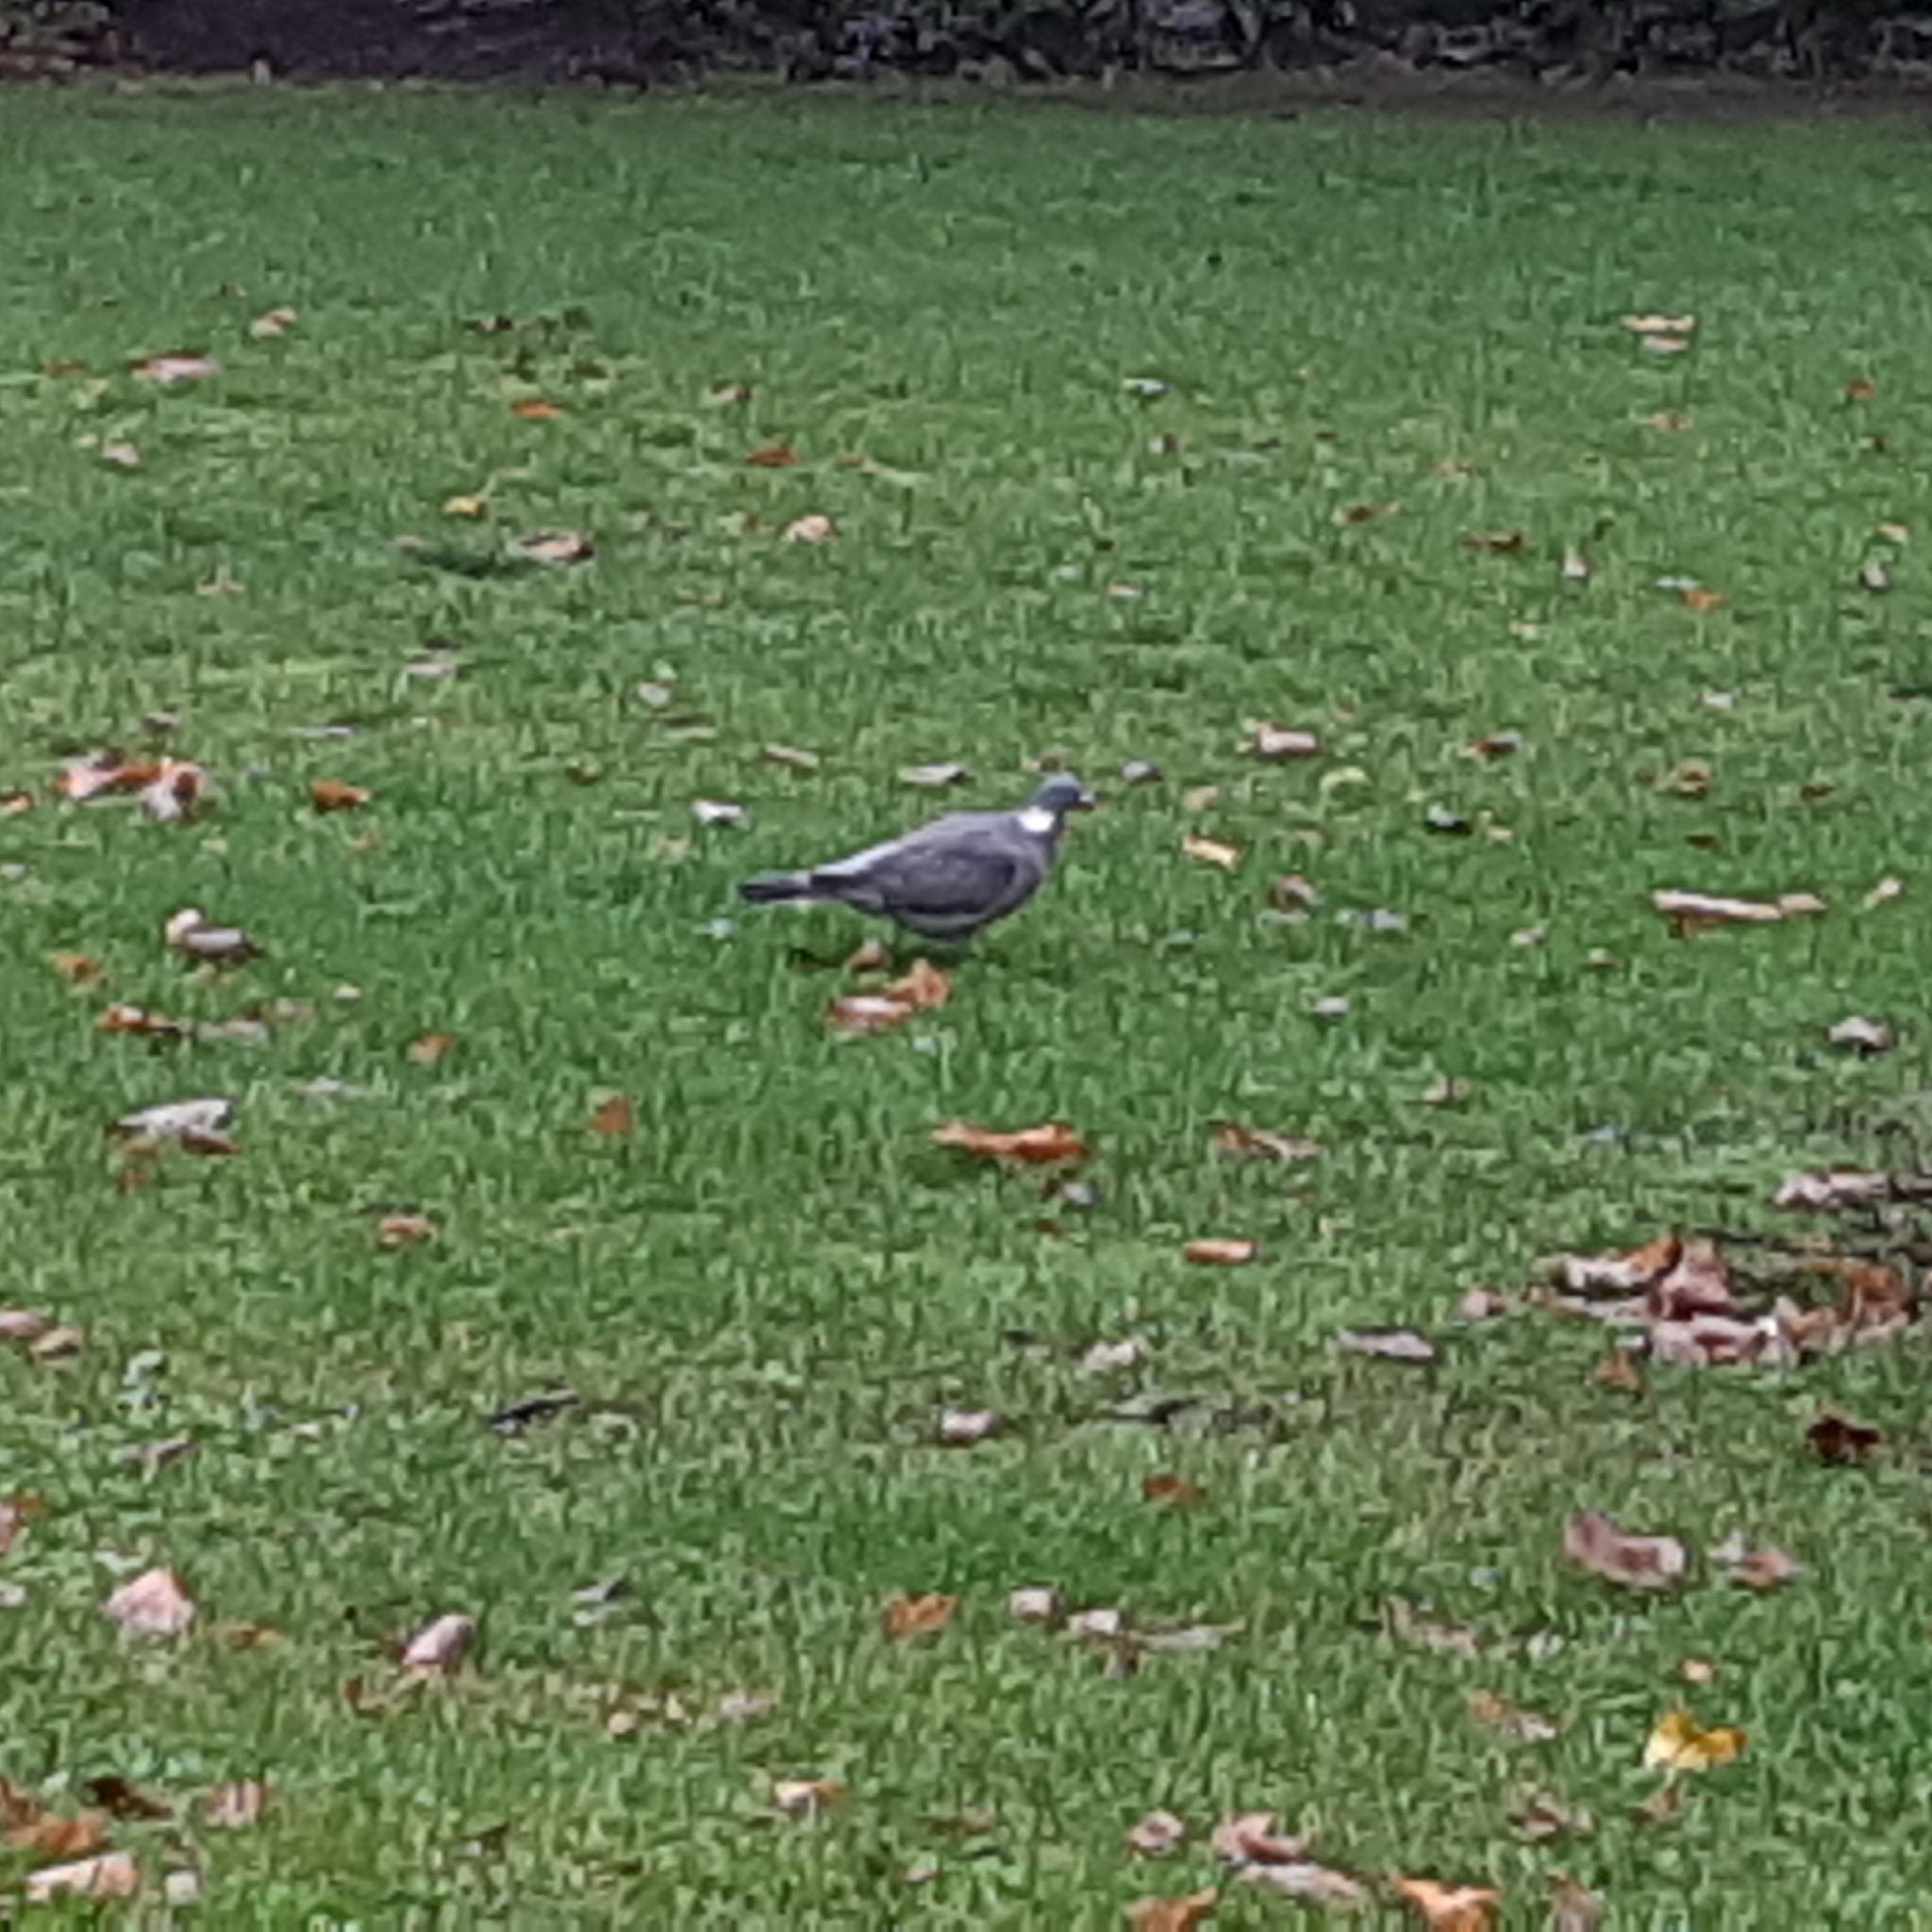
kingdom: Animalia
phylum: Chordata
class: Aves
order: Columbiformes
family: Columbidae
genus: Columba
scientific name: Columba palumbus
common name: Common wood pigeon
